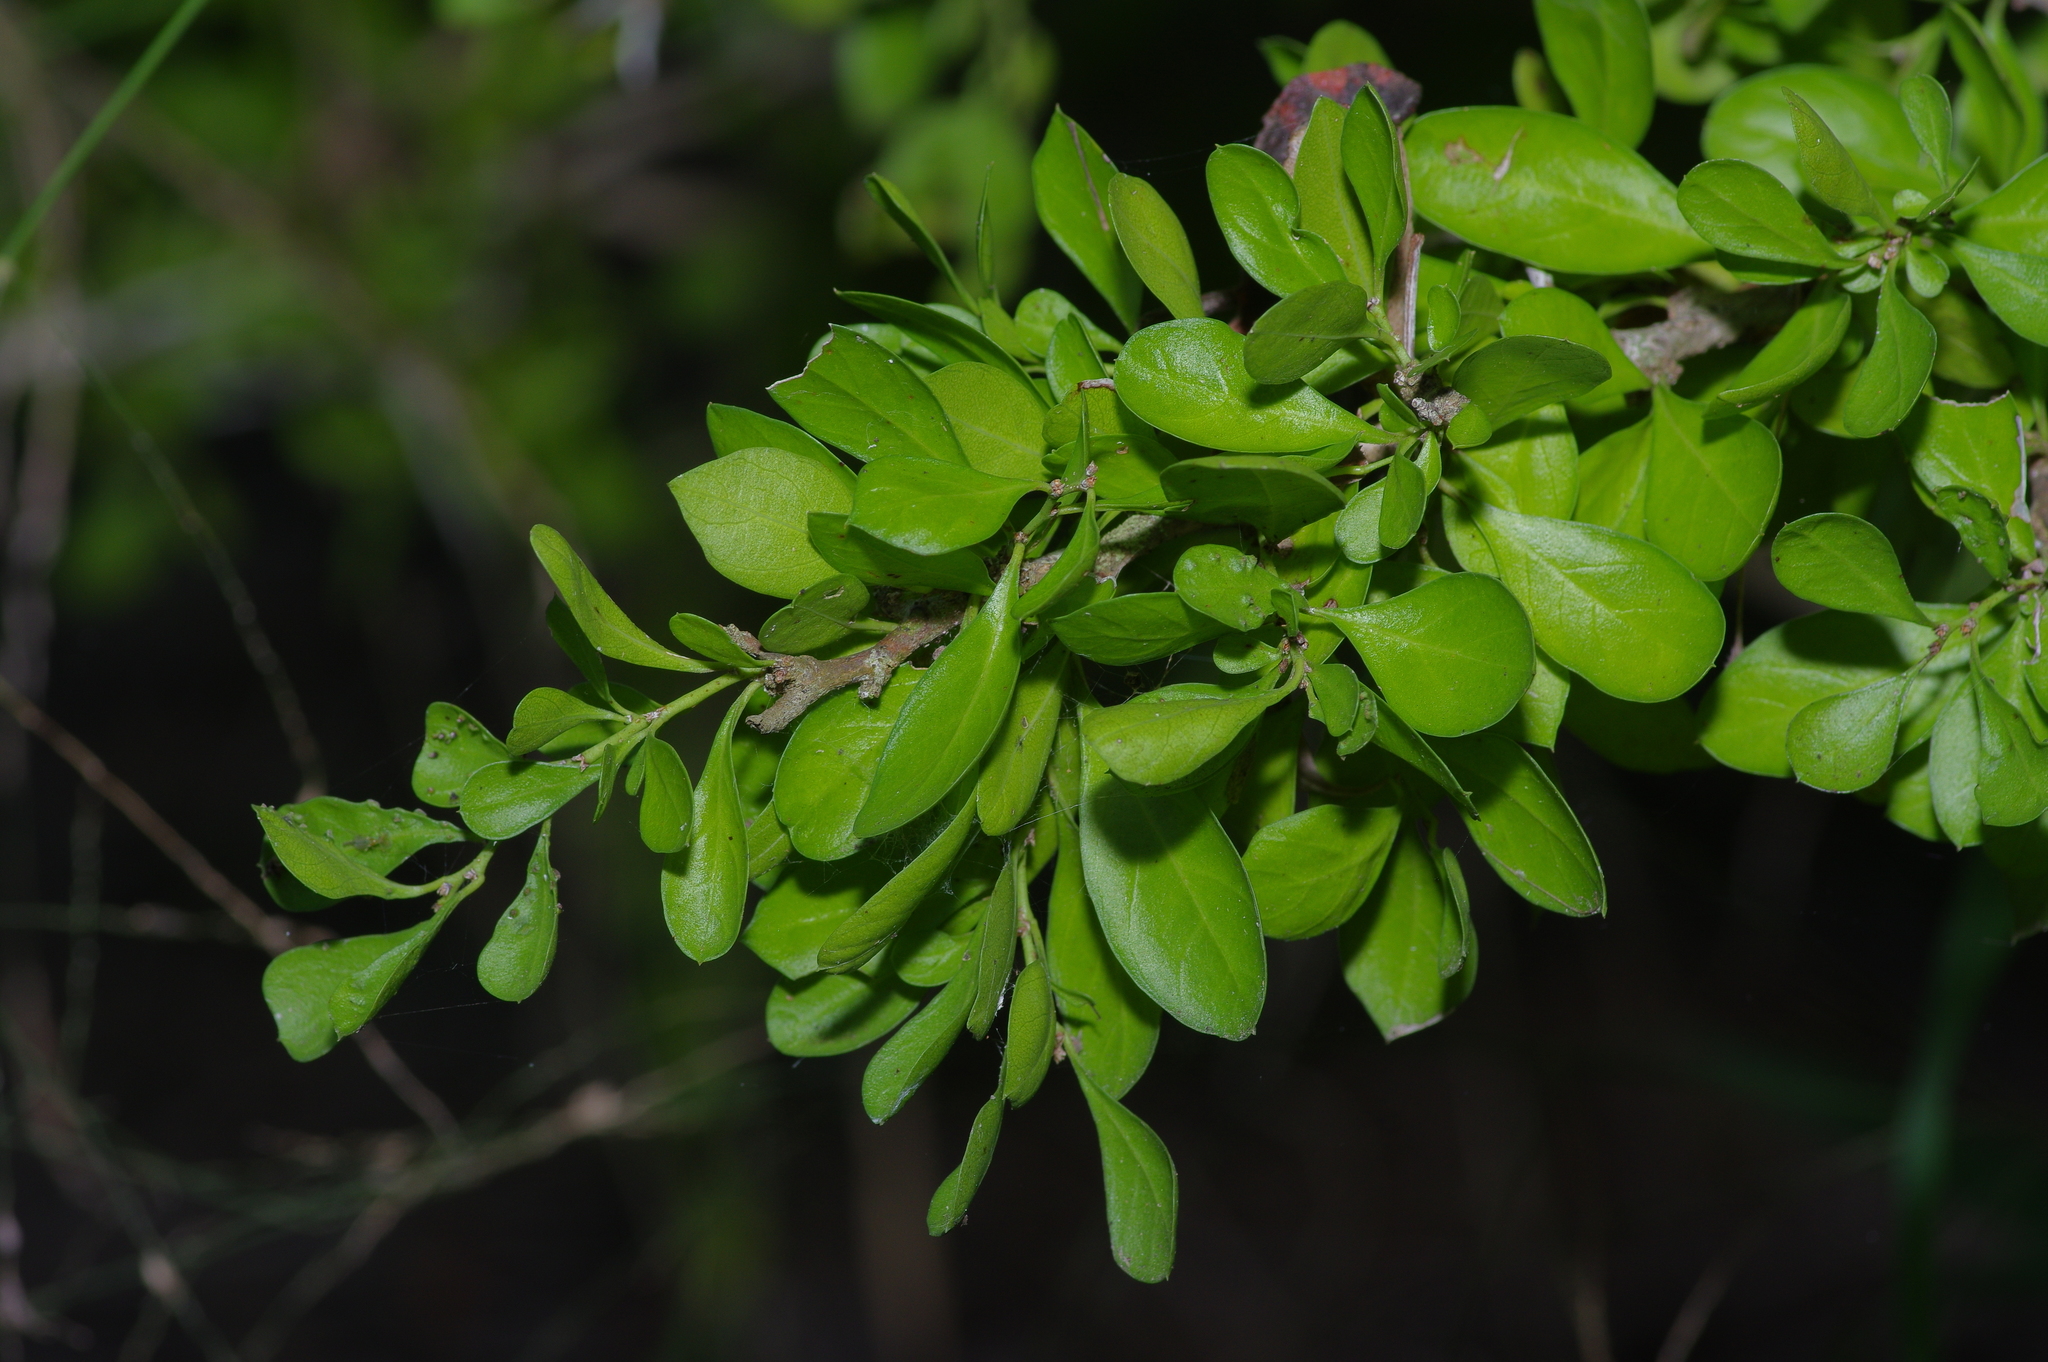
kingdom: Plantae
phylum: Tracheophyta
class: Magnoliopsida
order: Rosales
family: Rhamnaceae
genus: Condalia
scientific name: Condalia hookeri
